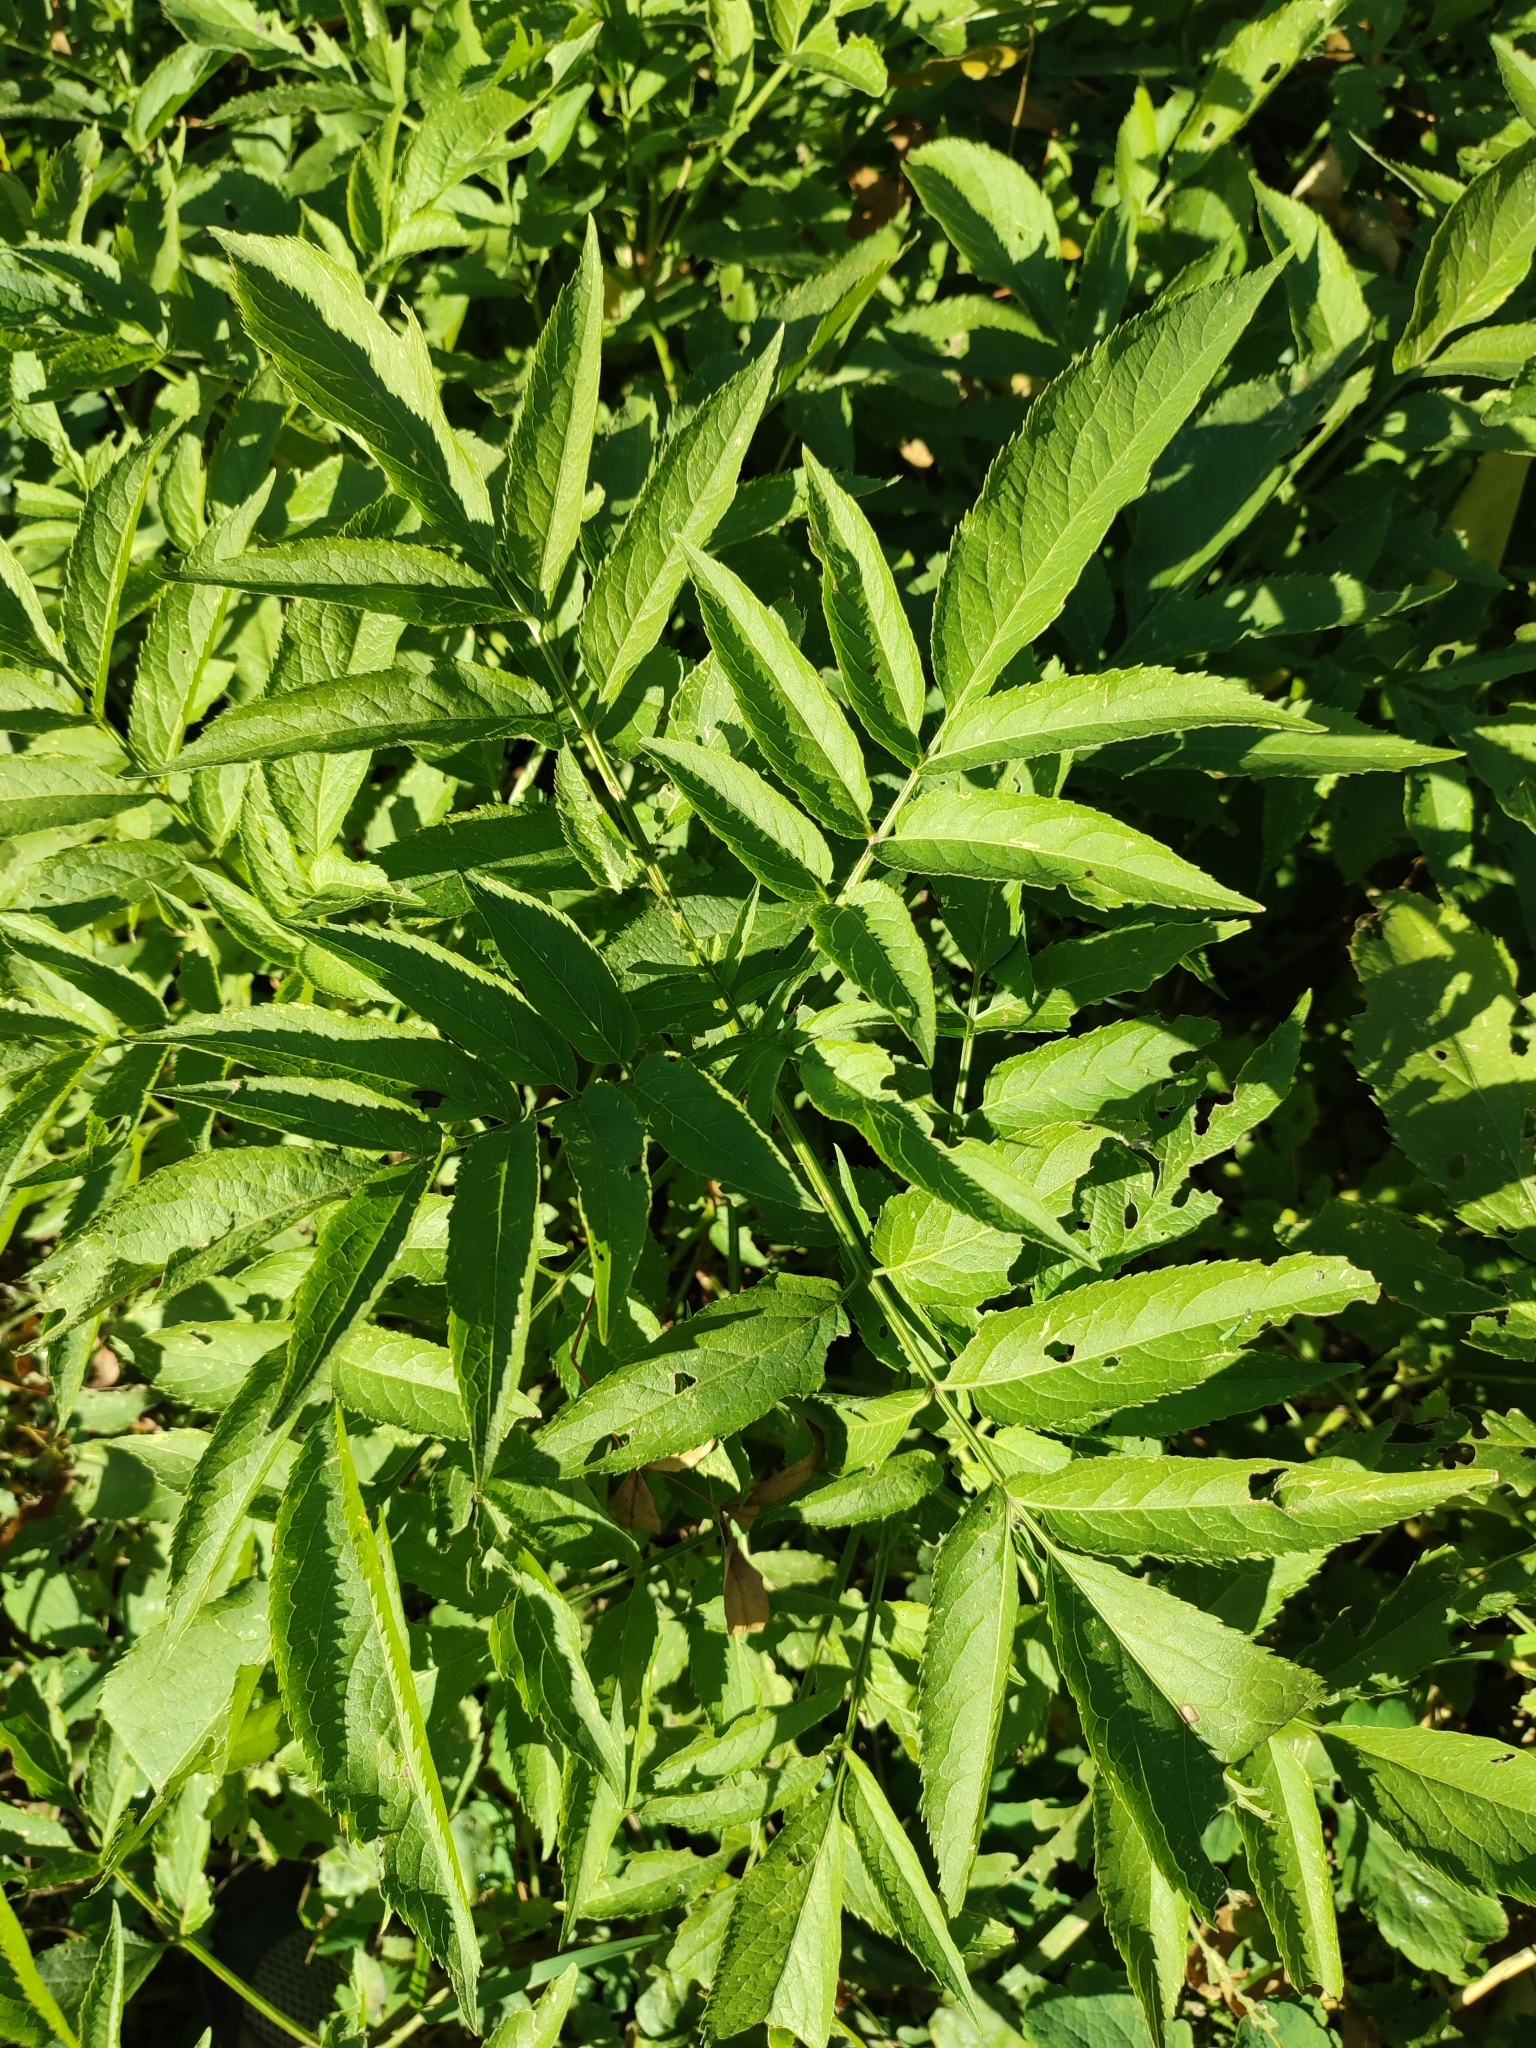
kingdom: Plantae
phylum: Tracheophyta
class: Magnoliopsida
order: Dipsacales
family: Viburnaceae
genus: Sambucus
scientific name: Sambucus ebulus
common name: Dwarf elder
